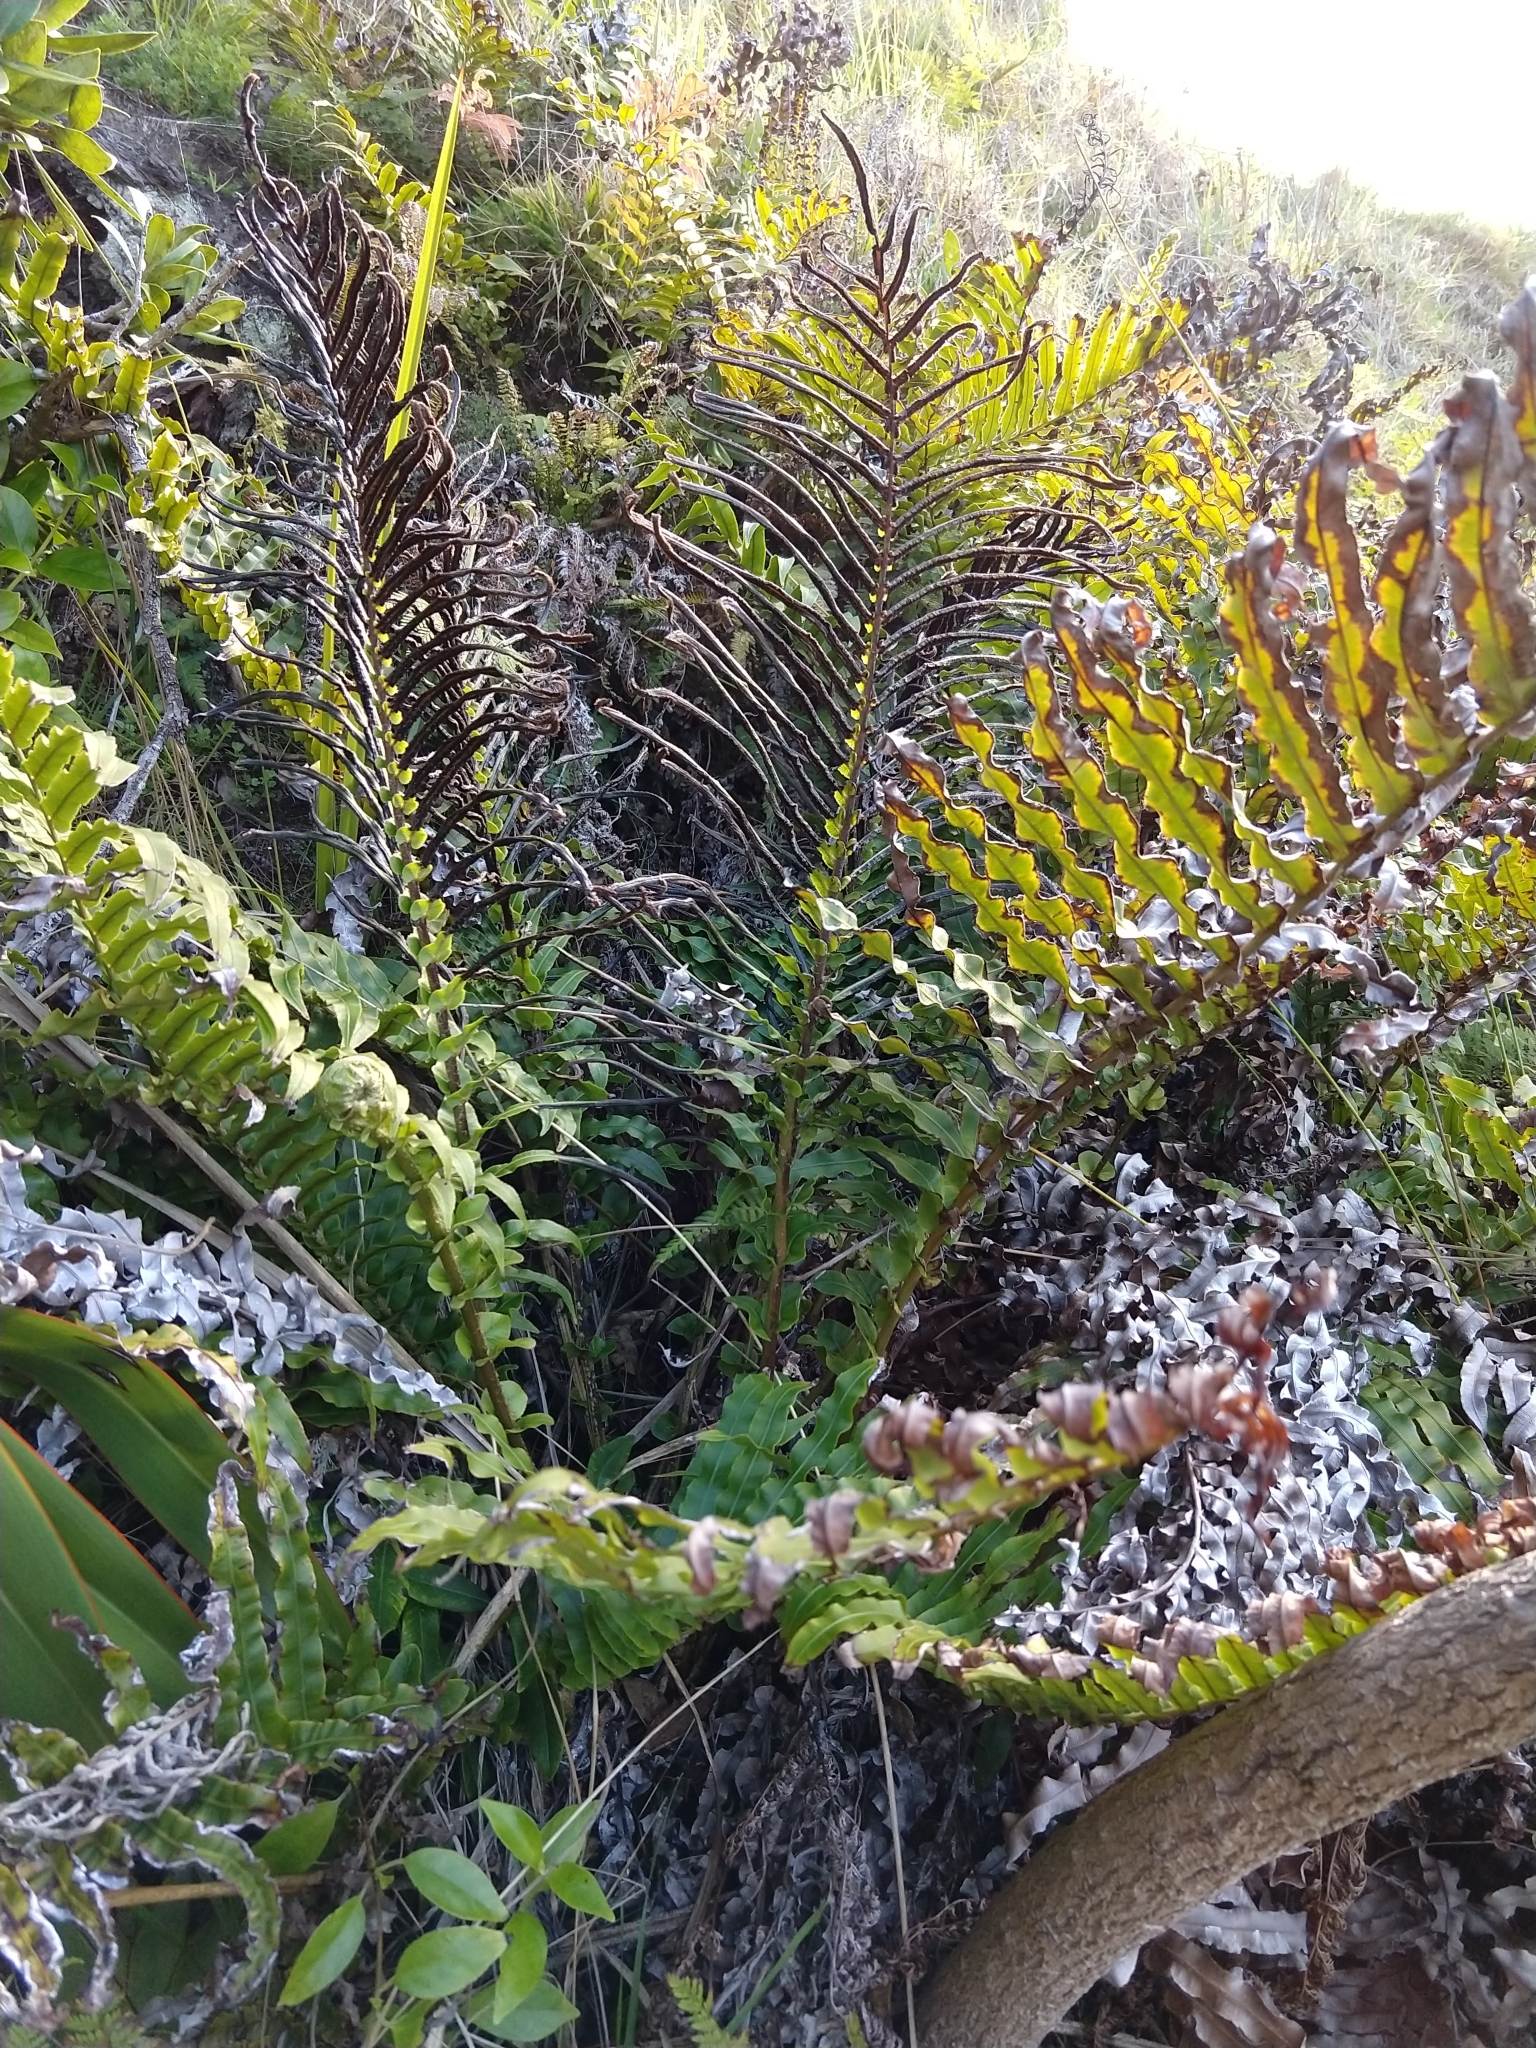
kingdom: Plantae
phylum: Tracheophyta
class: Polypodiopsida
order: Polypodiales
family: Blechnaceae
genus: Parablechnum
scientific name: Parablechnum novae-zelandiae
